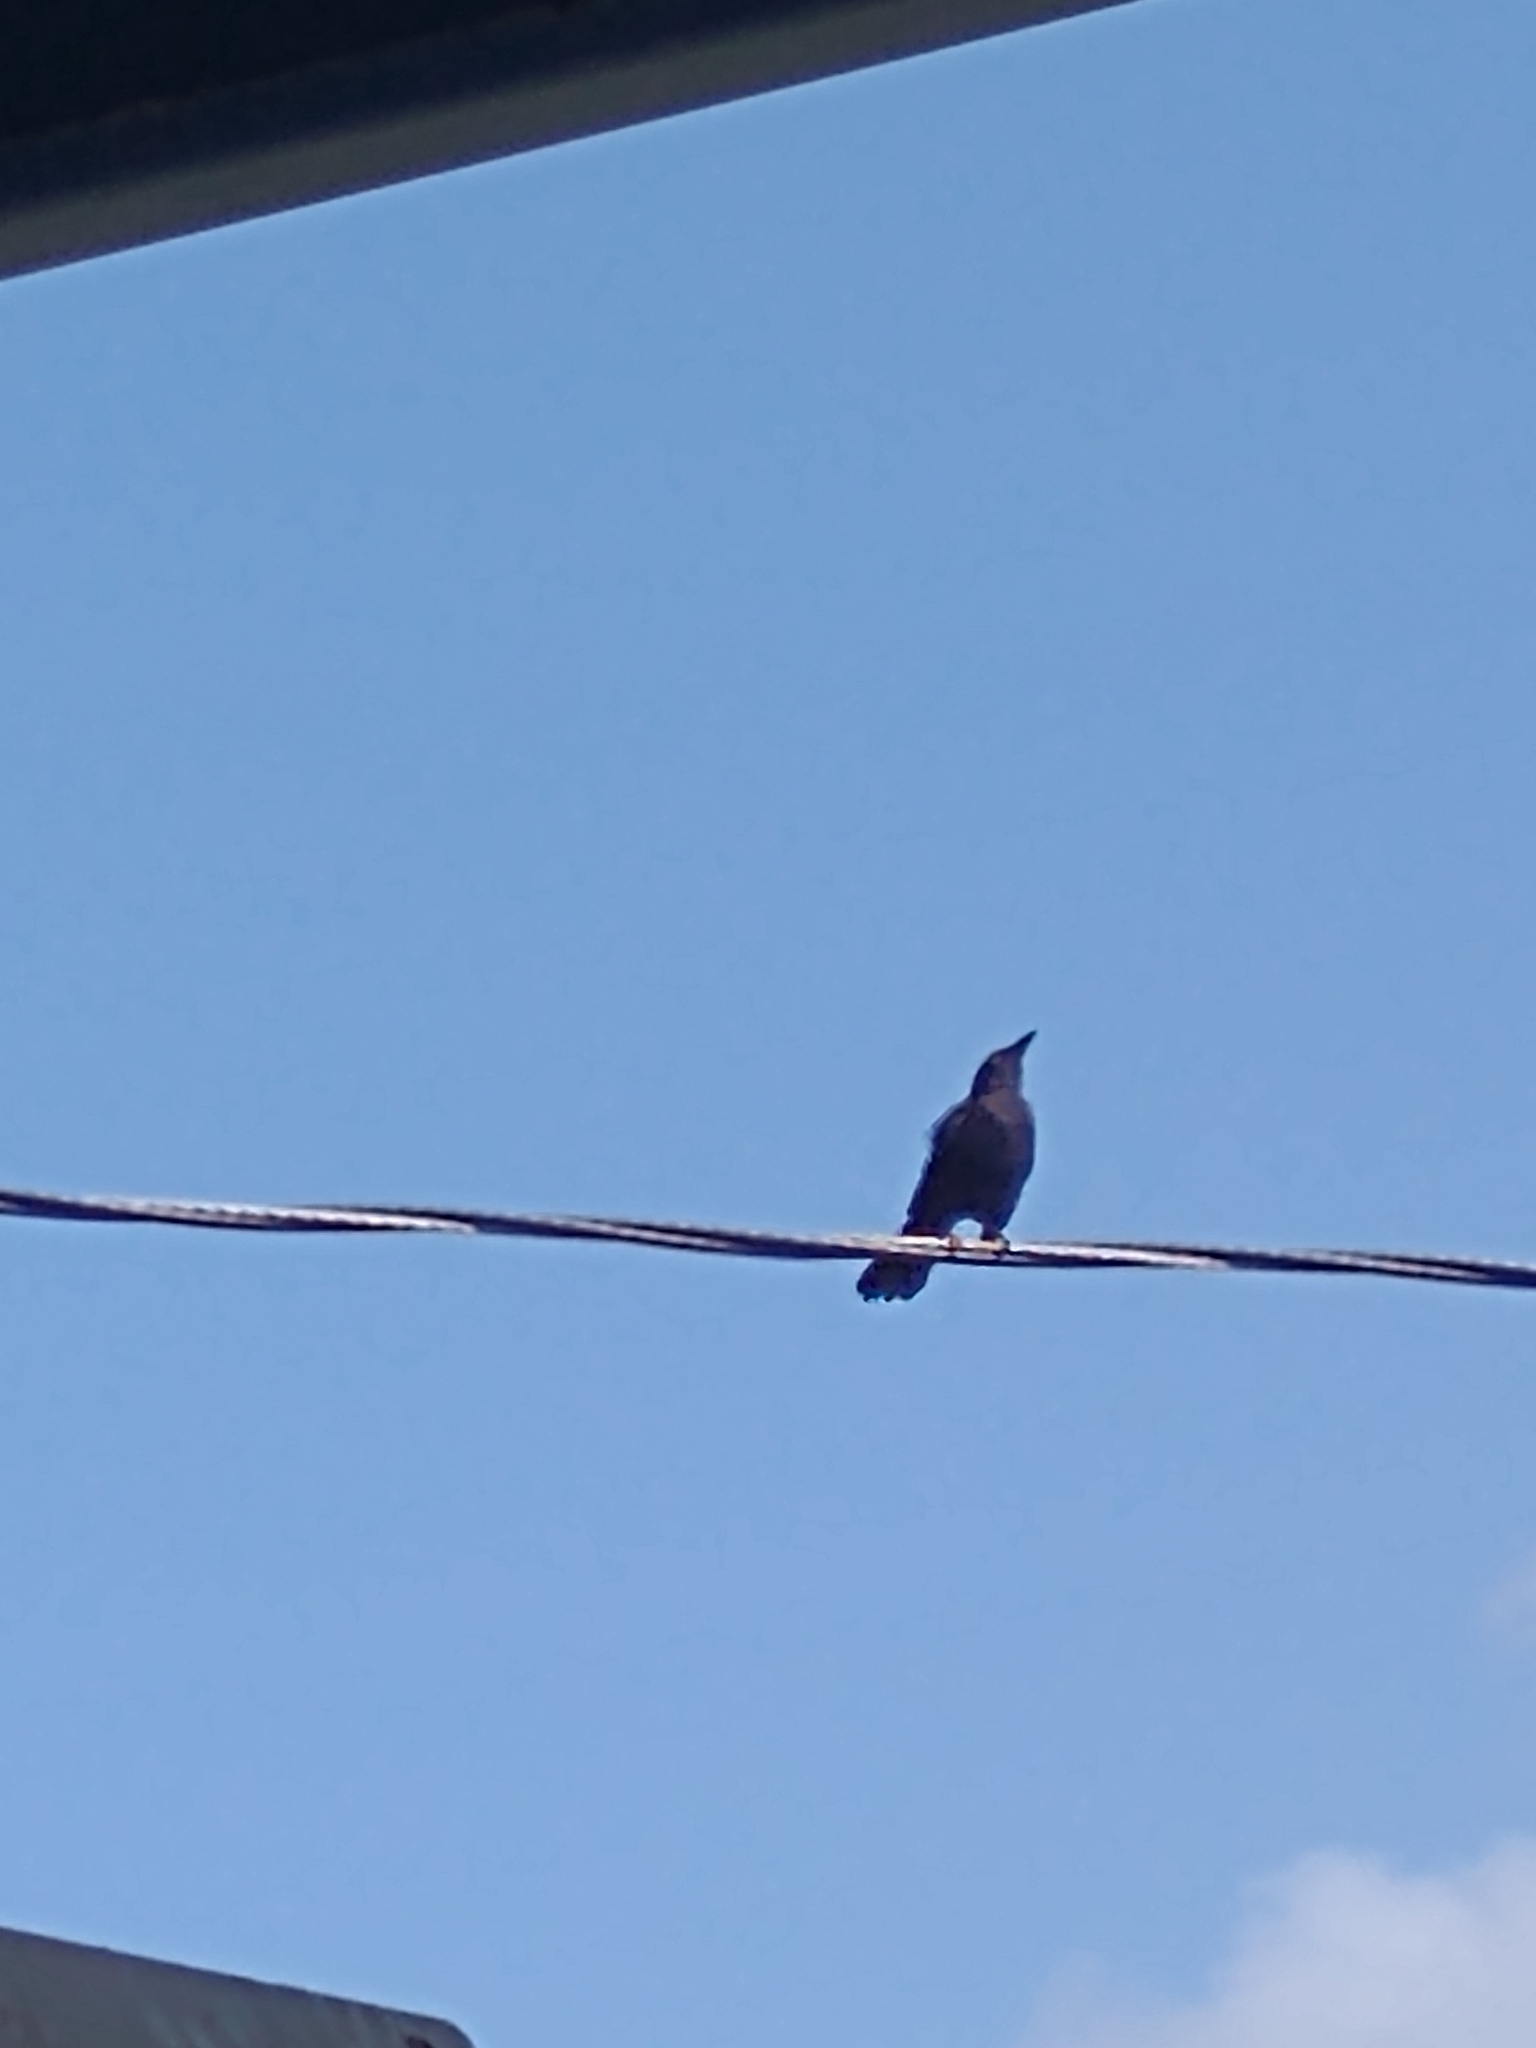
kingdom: Animalia
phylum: Chordata
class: Aves
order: Passeriformes
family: Icteridae
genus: Quiscalus
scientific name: Quiscalus quiscula
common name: Common grackle
